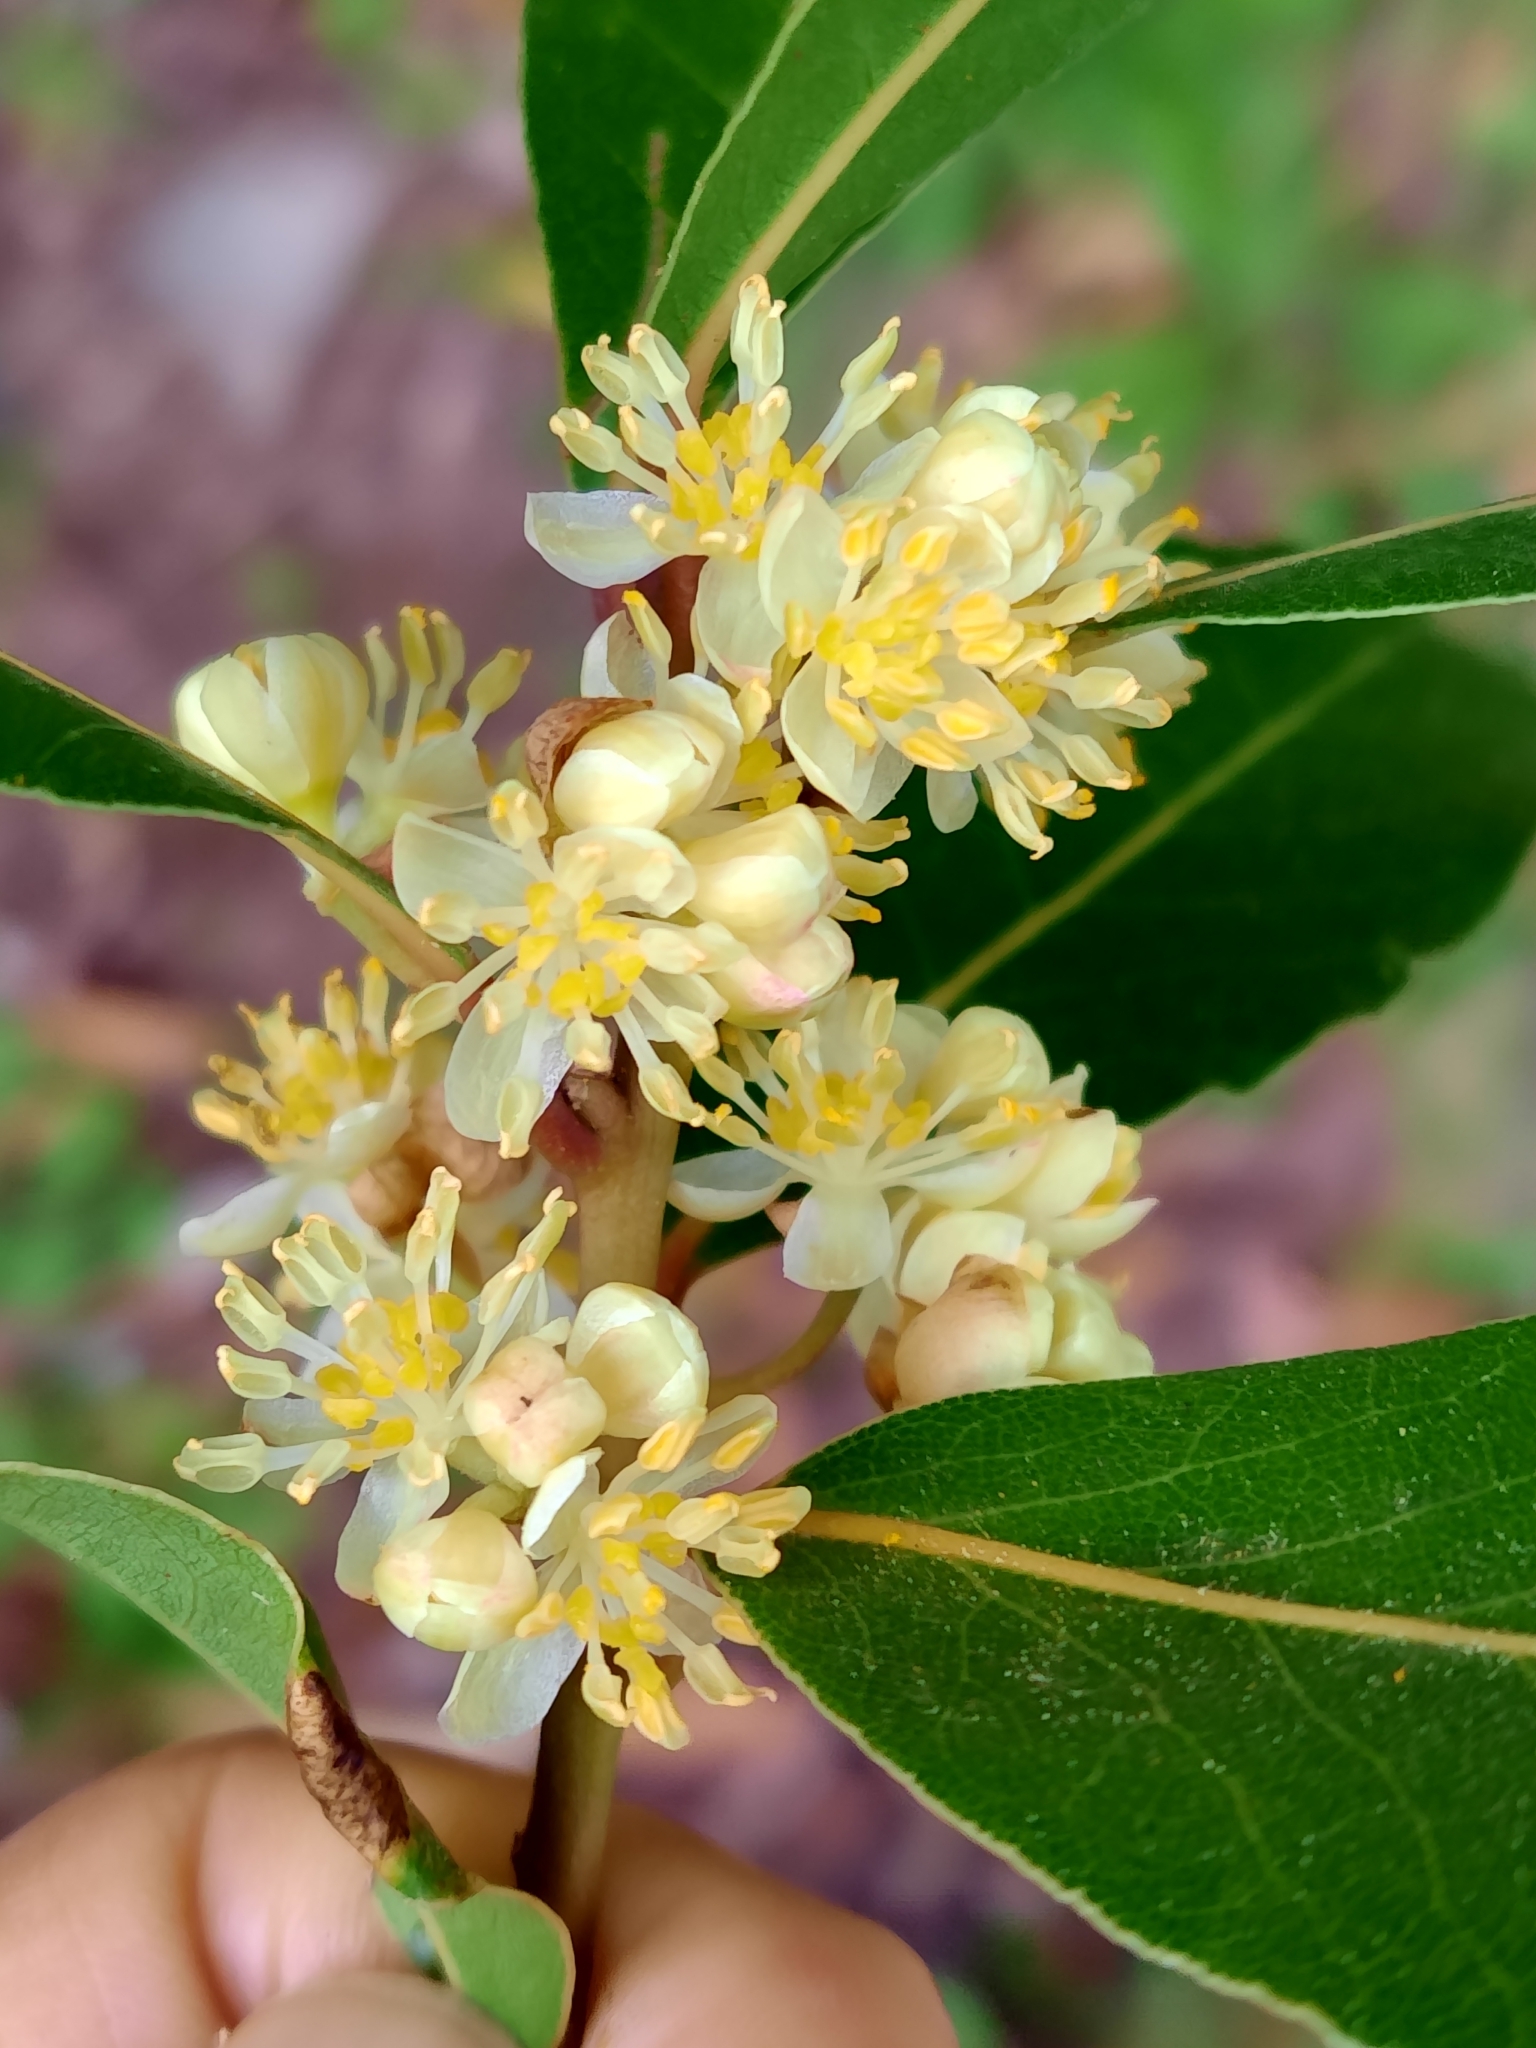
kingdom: Plantae
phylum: Tracheophyta
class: Magnoliopsida
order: Laurales
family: Lauraceae
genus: Laurus
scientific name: Laurus nobilis
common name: Bay
